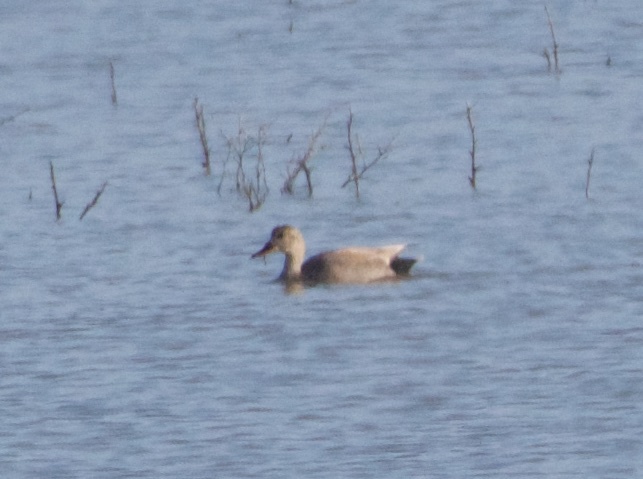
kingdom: Animalia
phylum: Chordata
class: Aves
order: Anseriformes
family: Anatidae
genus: Mareca
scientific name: Mareca strepera
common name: Gadwall
